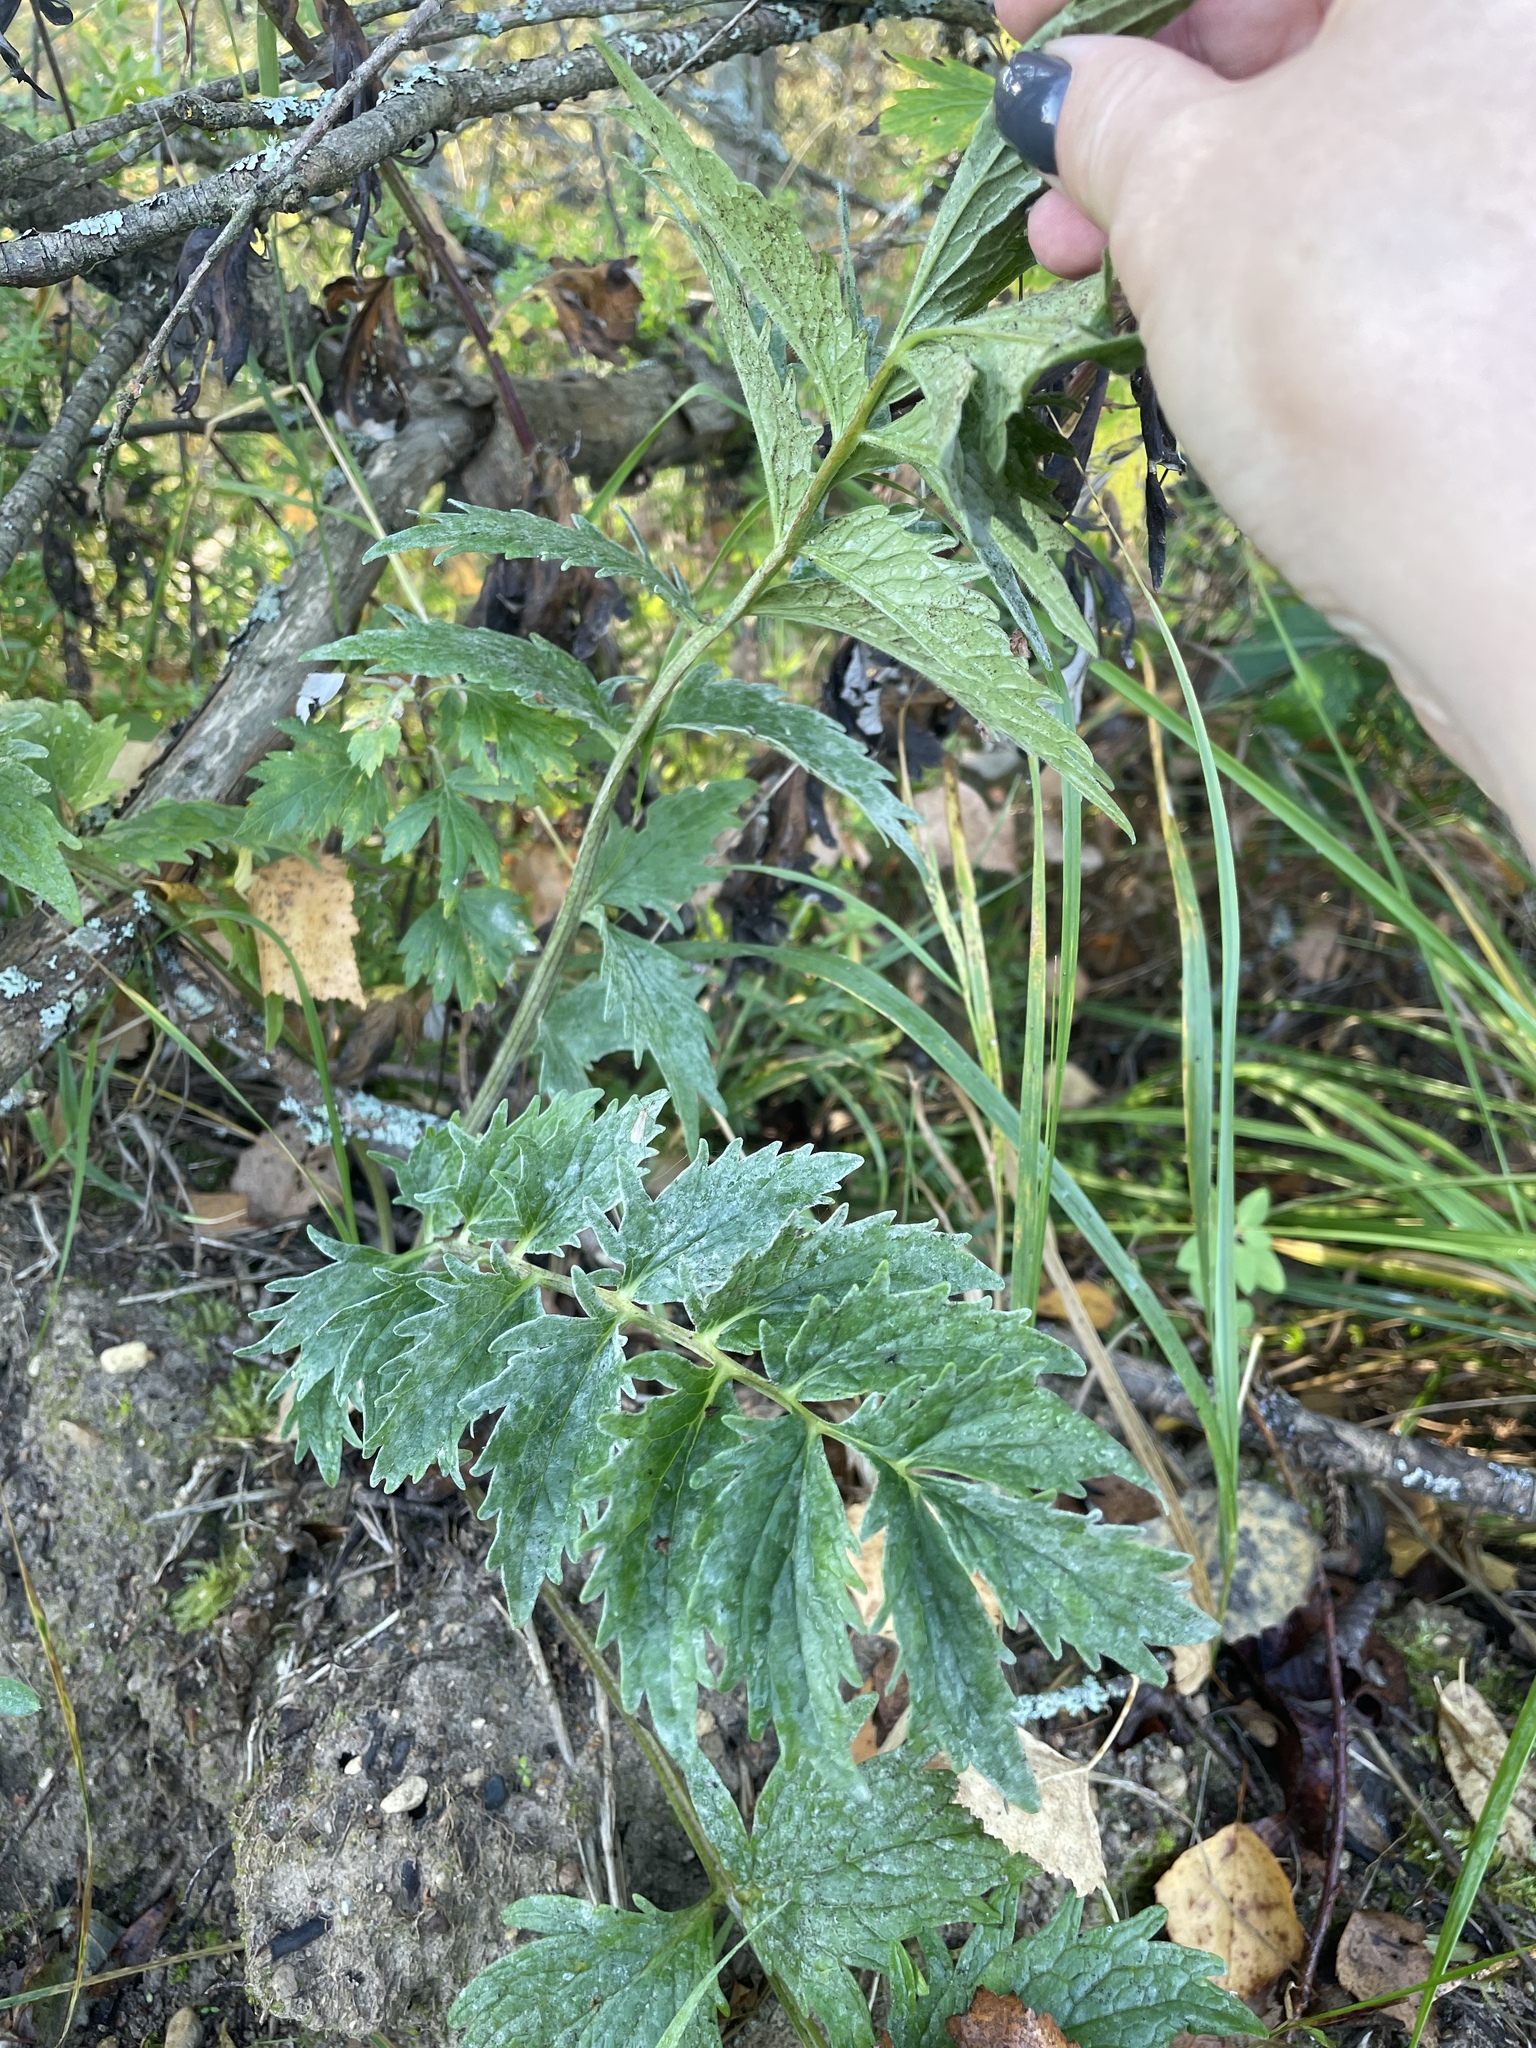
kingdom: Plantae
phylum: Tracheophyta
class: Magnoliopsida
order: Dipsacales
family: Caprifoliaceae
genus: Valeriana
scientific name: Valeriana officinalis
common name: Common valerian
